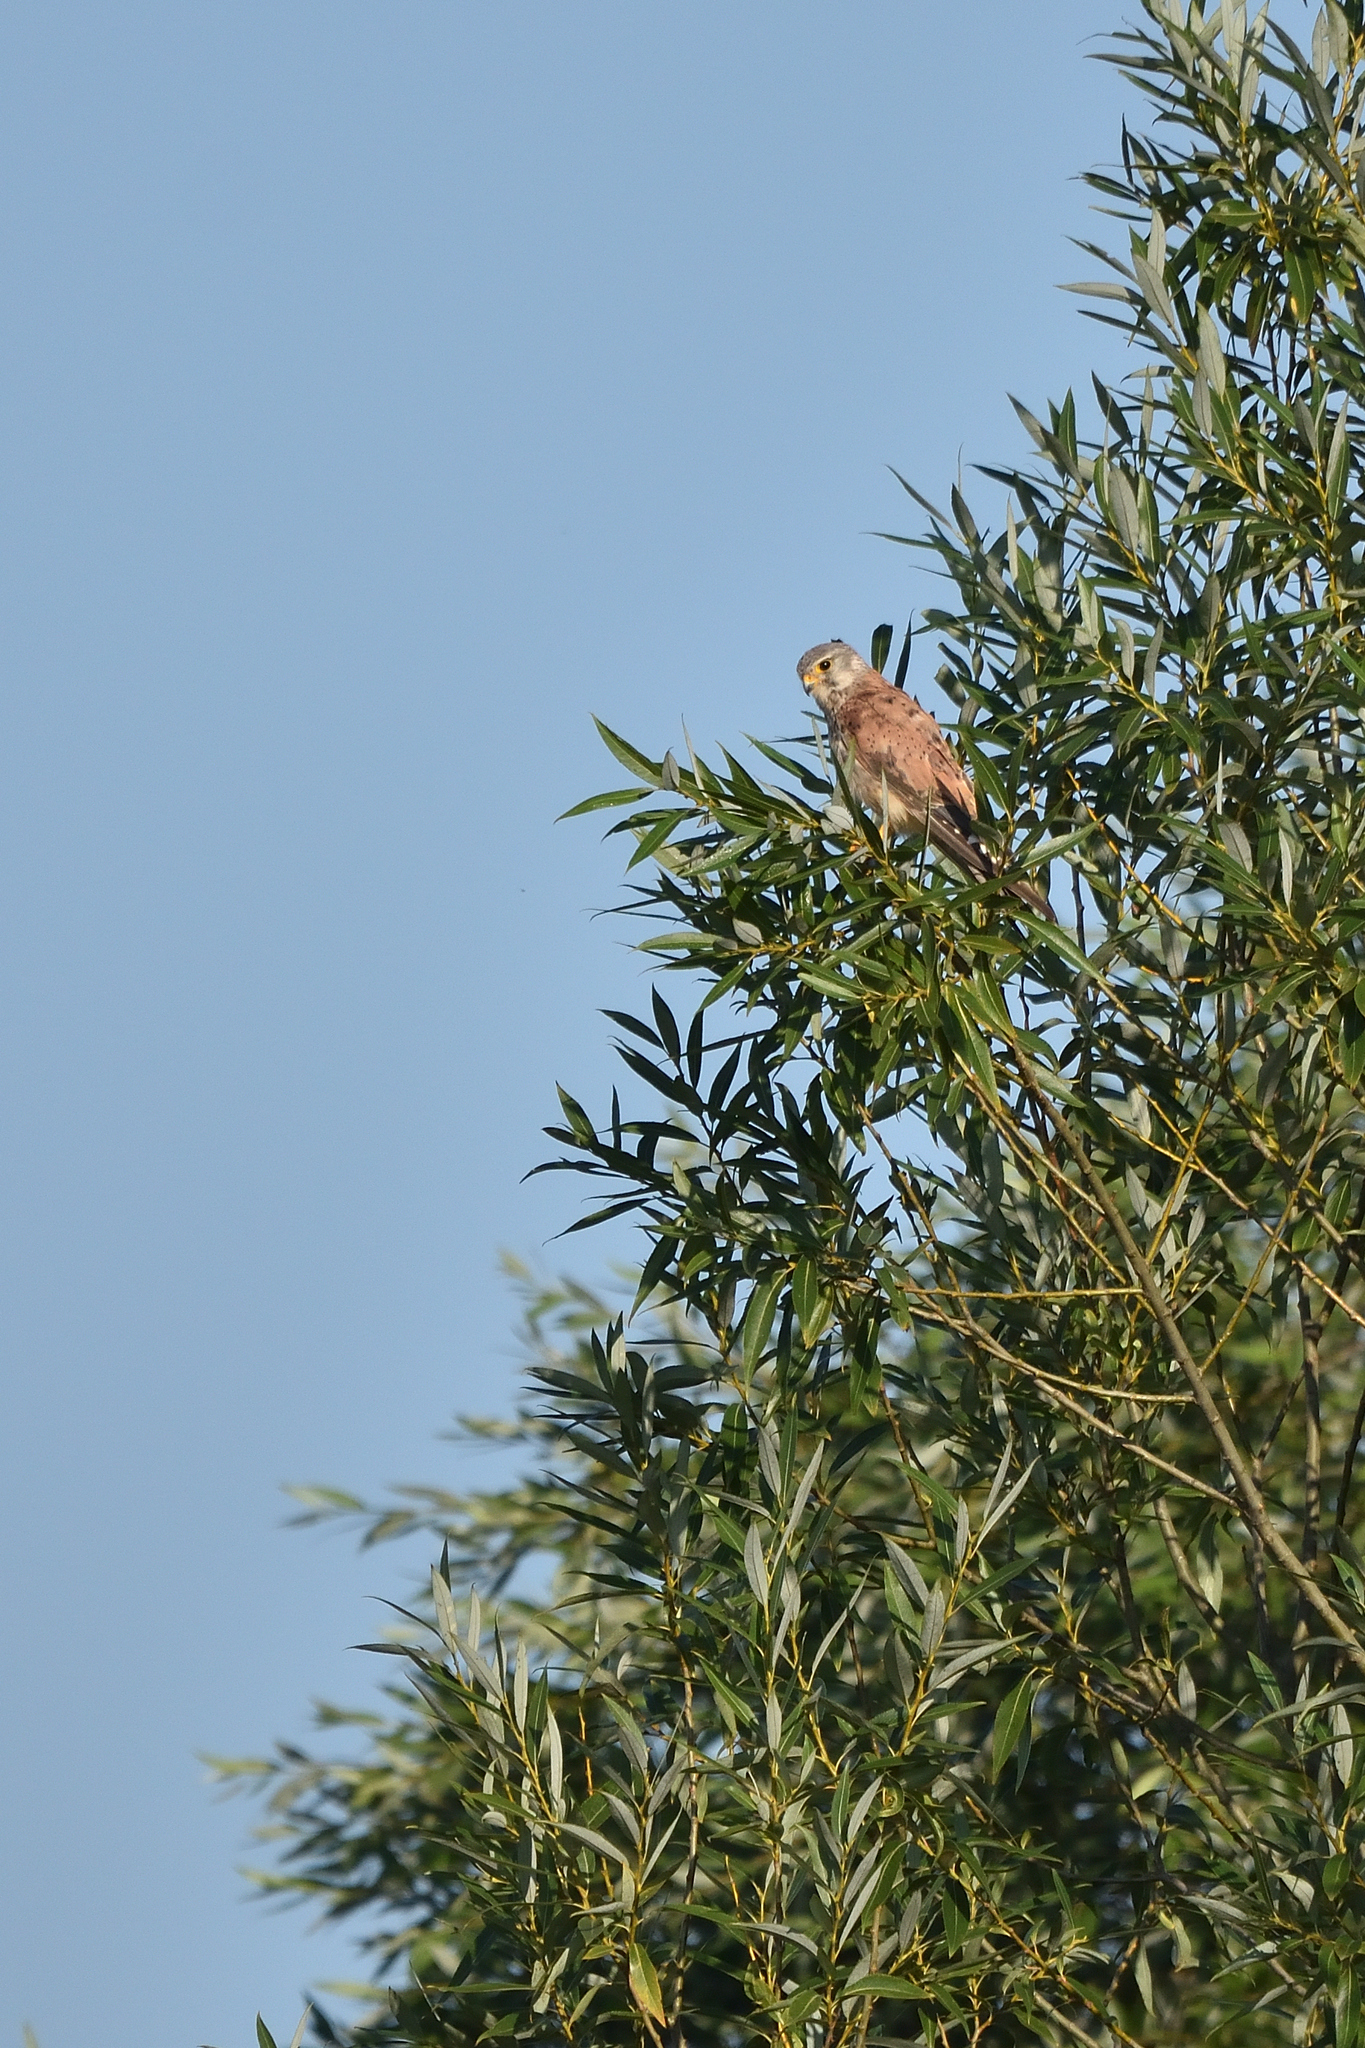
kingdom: Animalia
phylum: Chordata
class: Aves
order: Falconiformes
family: Falconidae
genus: Falco
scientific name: Falco tinnunculus
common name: Common kestrel
